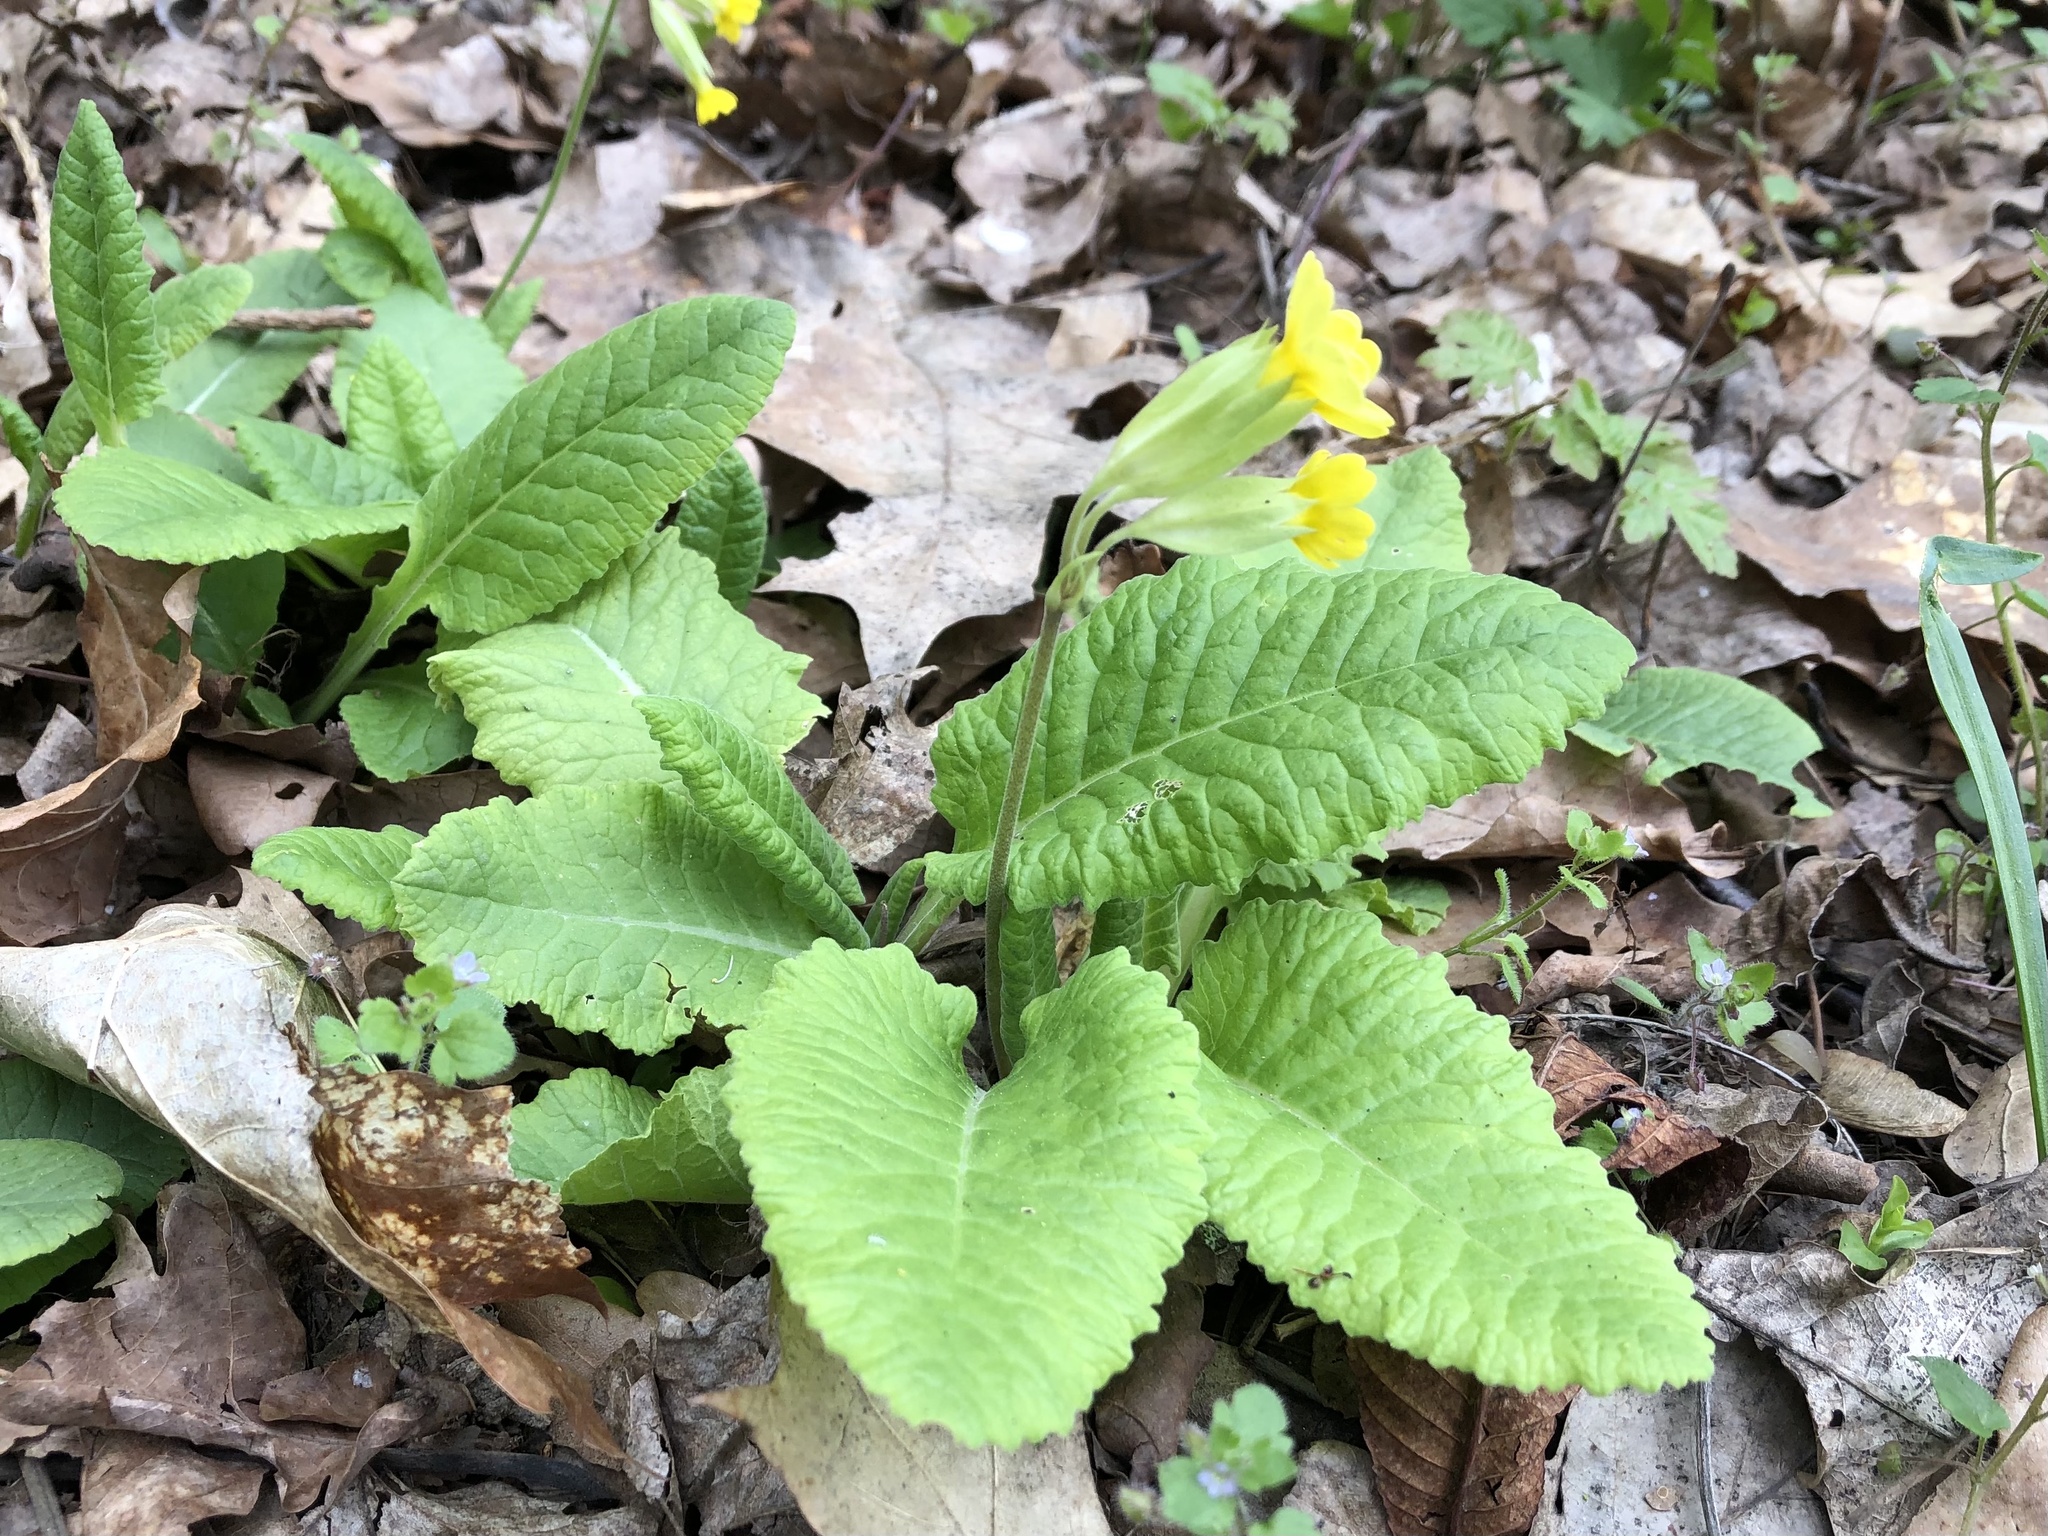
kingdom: Plantae
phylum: Tracheophyta
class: Magnoliopsida
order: Ericales
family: Primulaceae
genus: Primula
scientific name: Primula veris
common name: Cowslip
